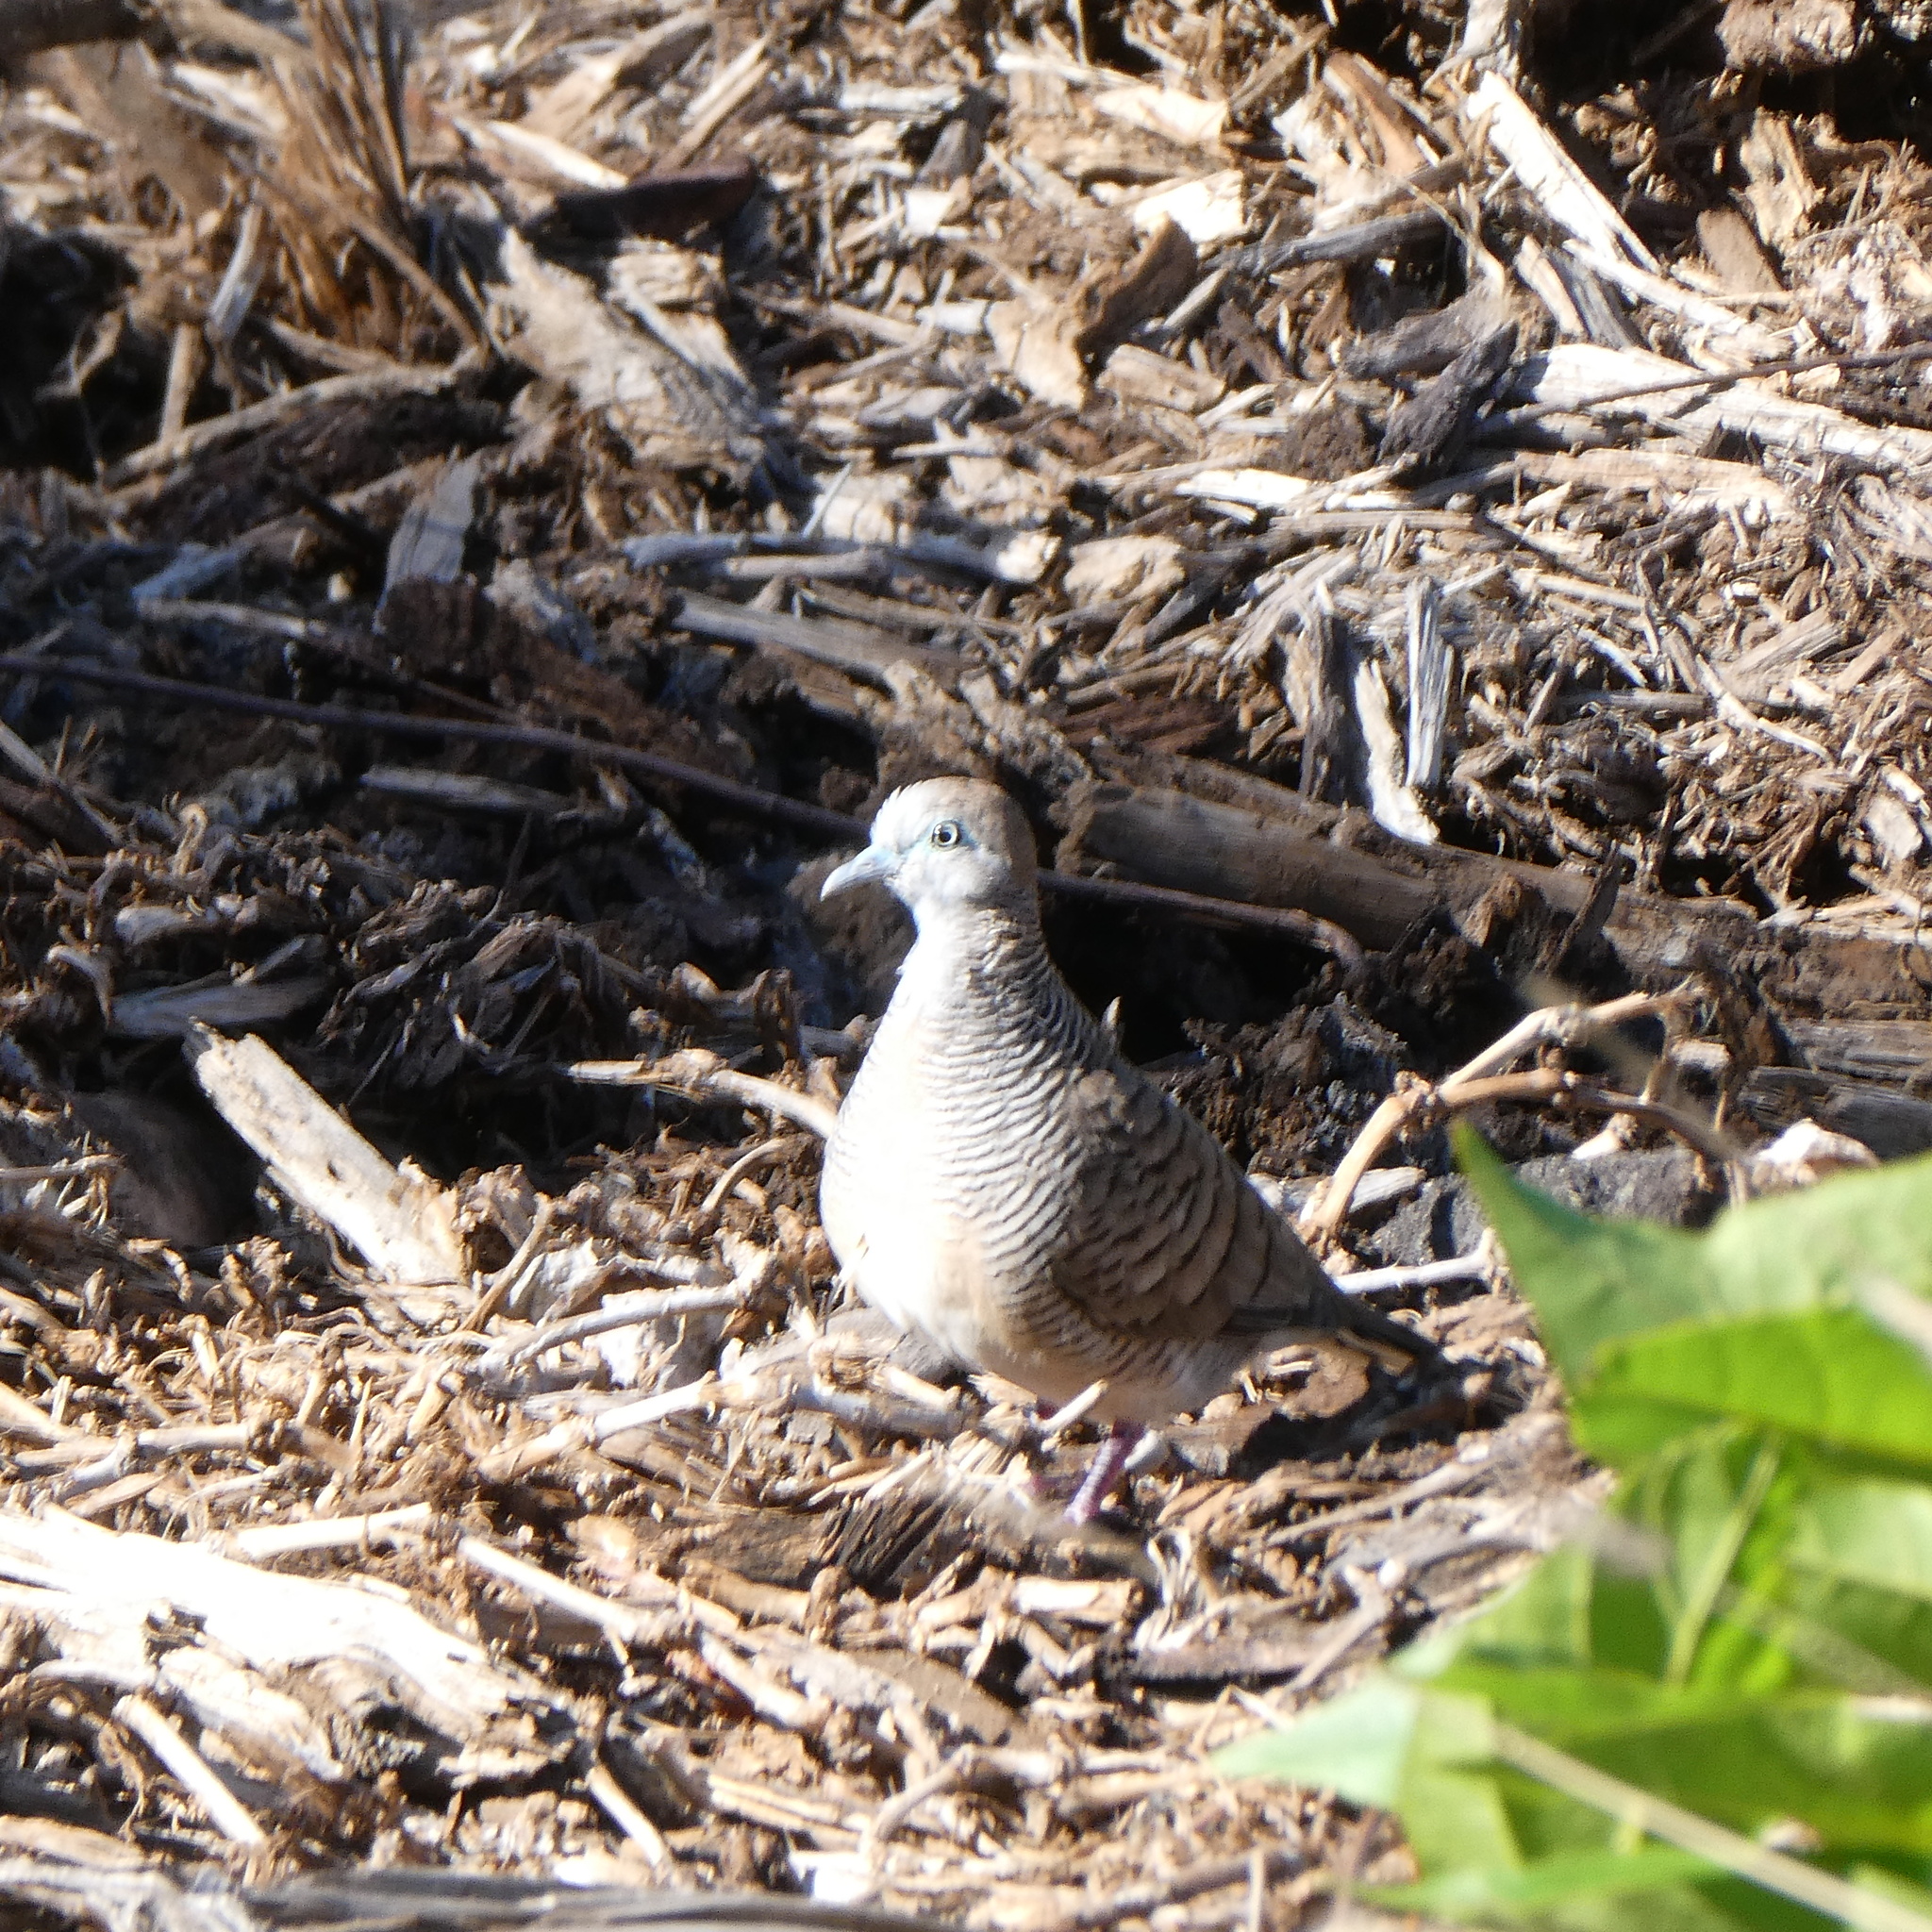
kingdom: Animalia
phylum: Chordata
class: Aves
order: Columbiformes
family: Columbidae
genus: Geopelia
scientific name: Geopelia striata
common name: Zebra dove
